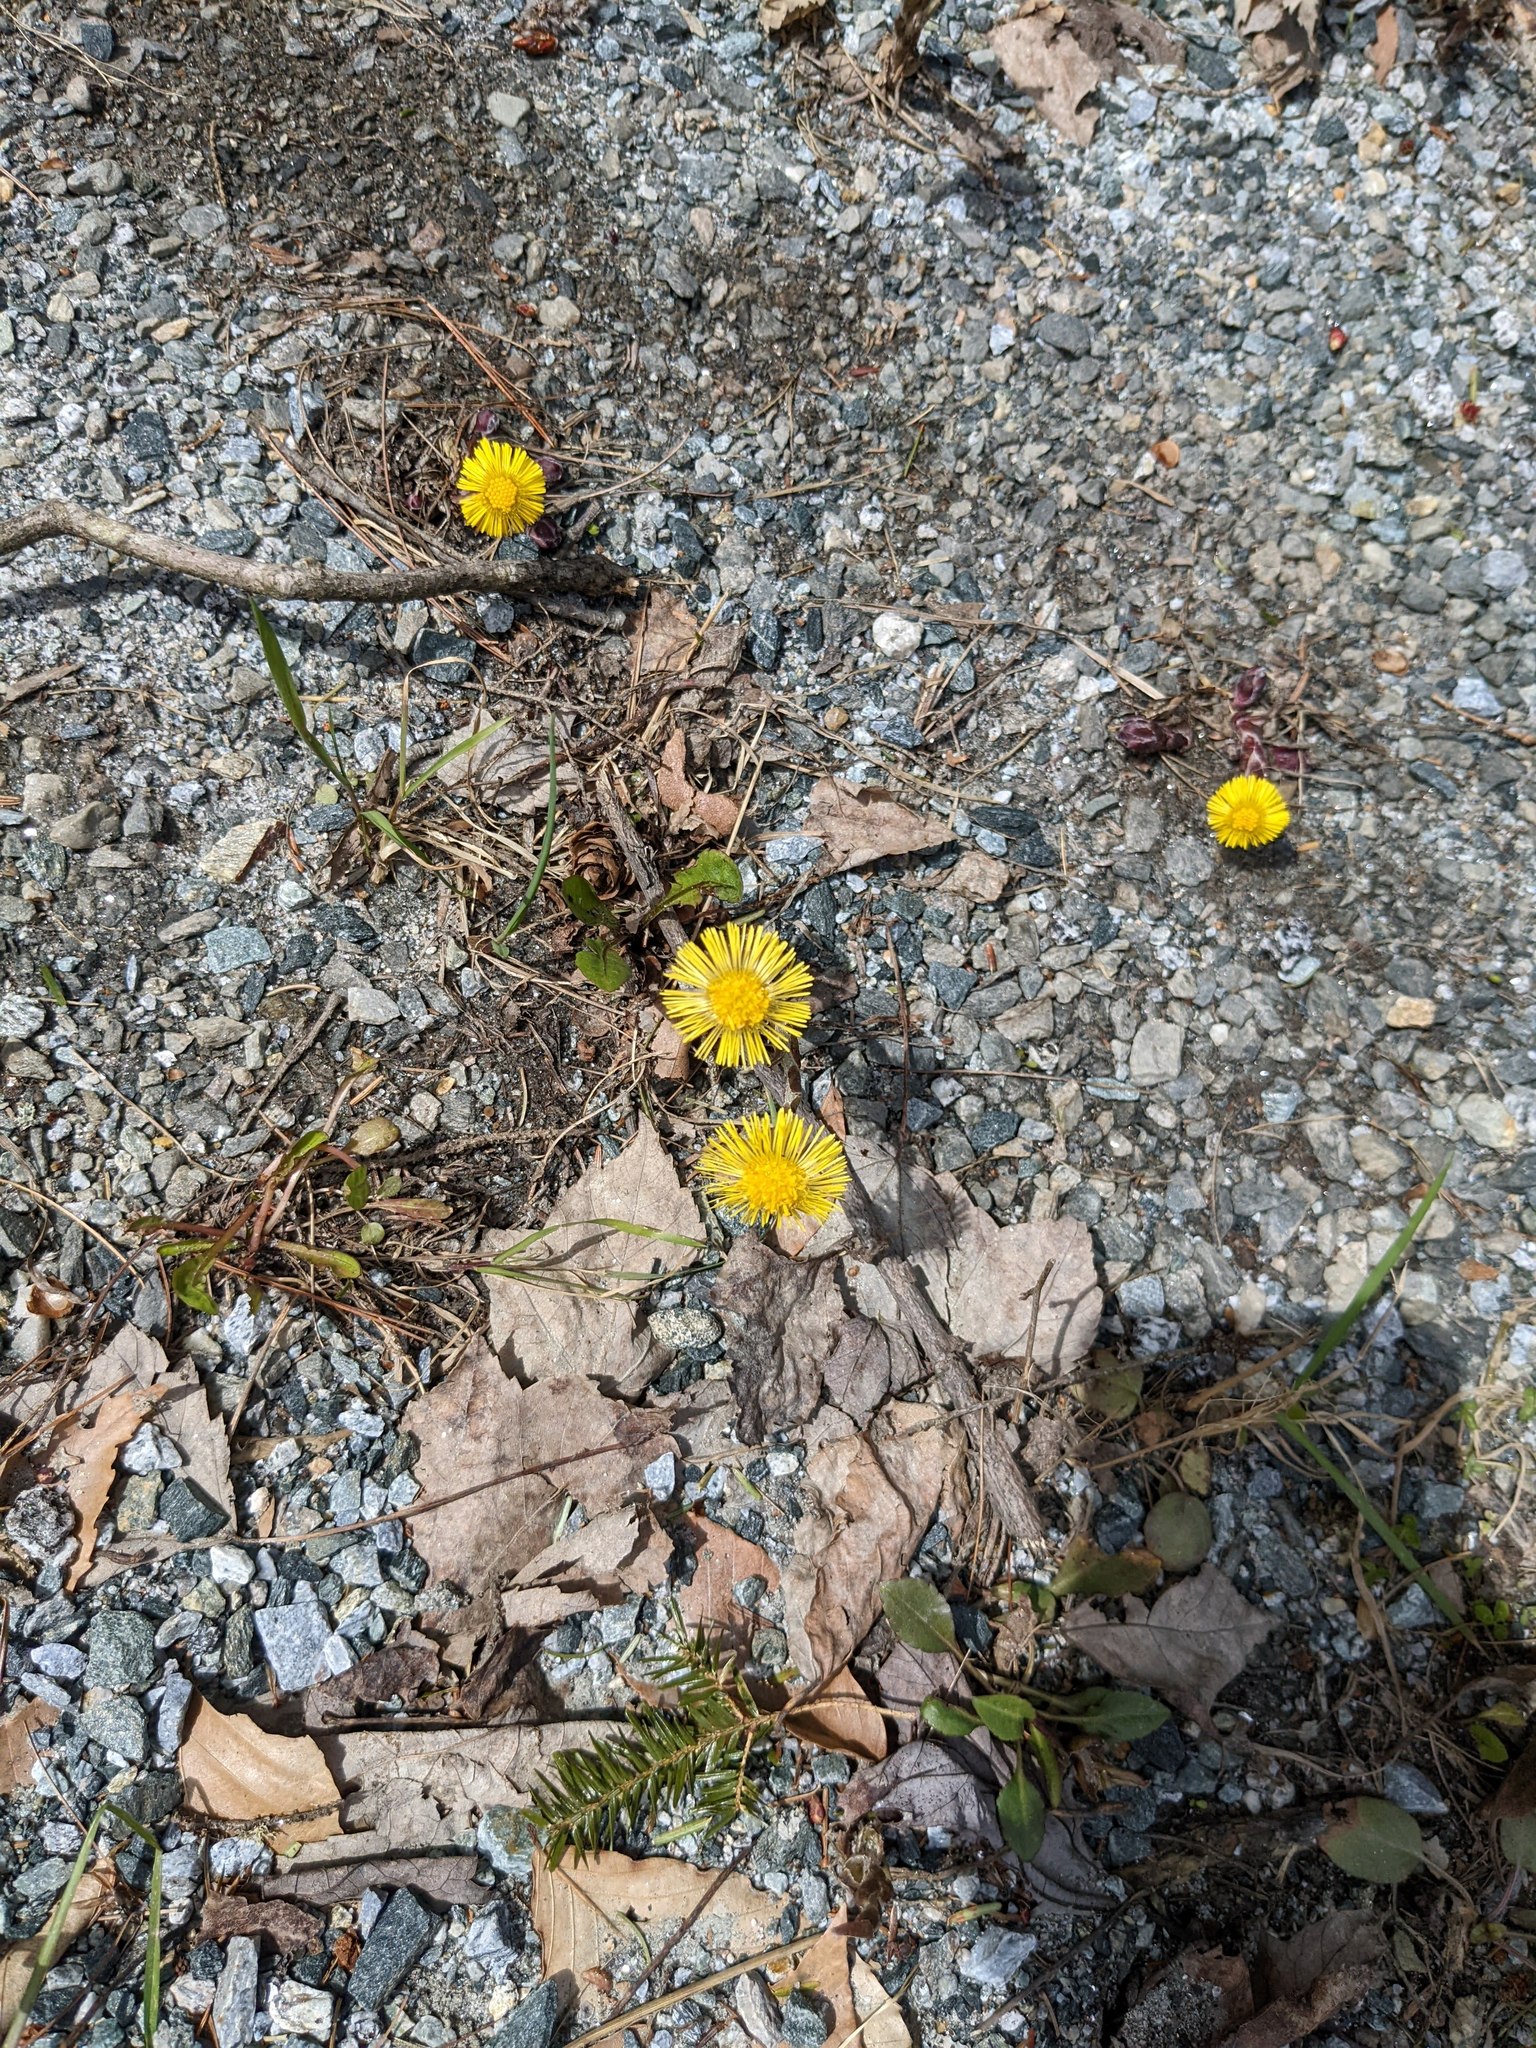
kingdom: Plantae
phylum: Tracheophyta
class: Magnoliopsida
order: Asterales
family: Asteraceae
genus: Tussilago
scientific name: Tussilago farfara
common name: Coltsfoot
